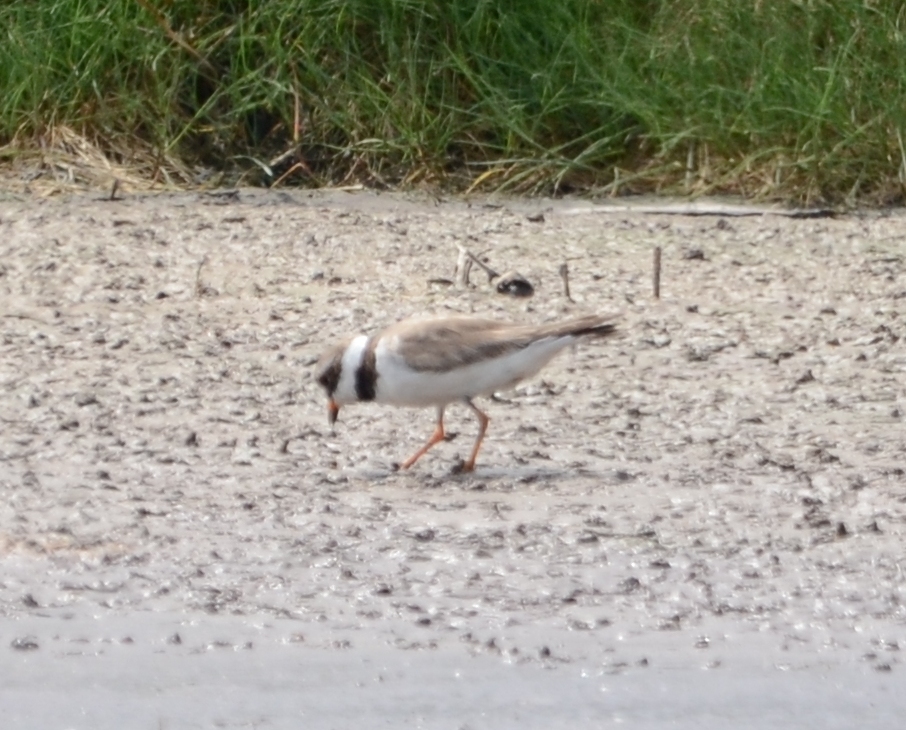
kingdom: Animalia
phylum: Chordata
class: Aves
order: Charadriiformes
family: Charadriidae
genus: Charadrius
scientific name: Charadrius hiaticula
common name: Common ringed plover
